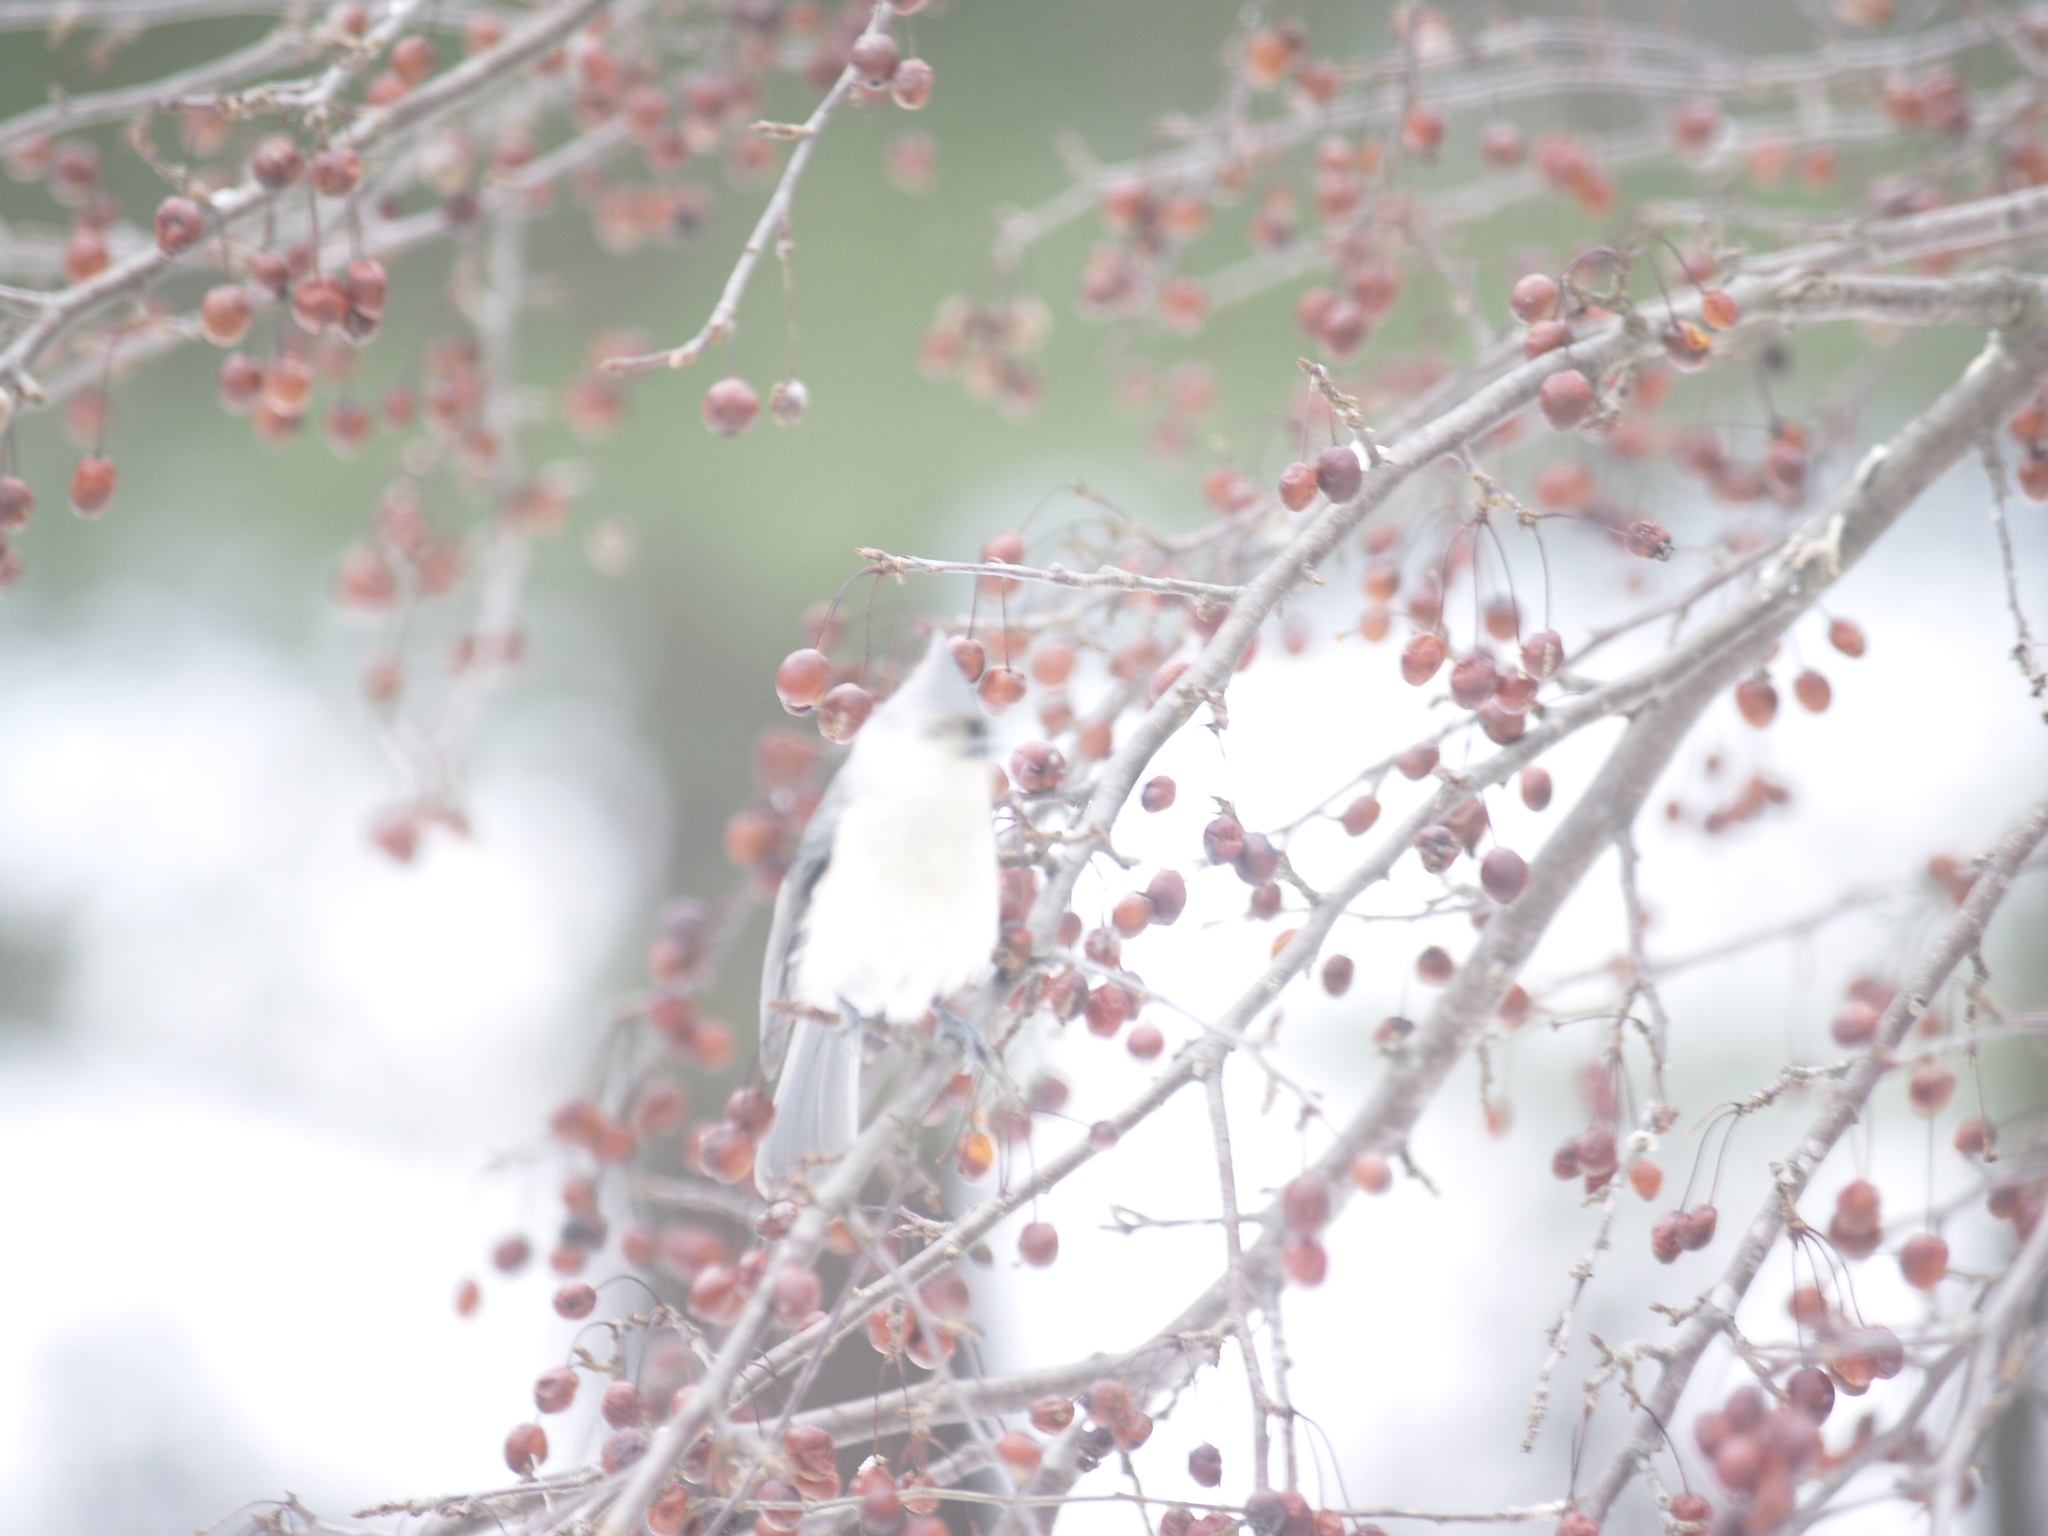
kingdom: Animalia
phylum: Chordata
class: Aves
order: Passeriformes
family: Paridae
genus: Baeolophus
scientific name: Baeolophus bicolor
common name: Tufted titmouse
